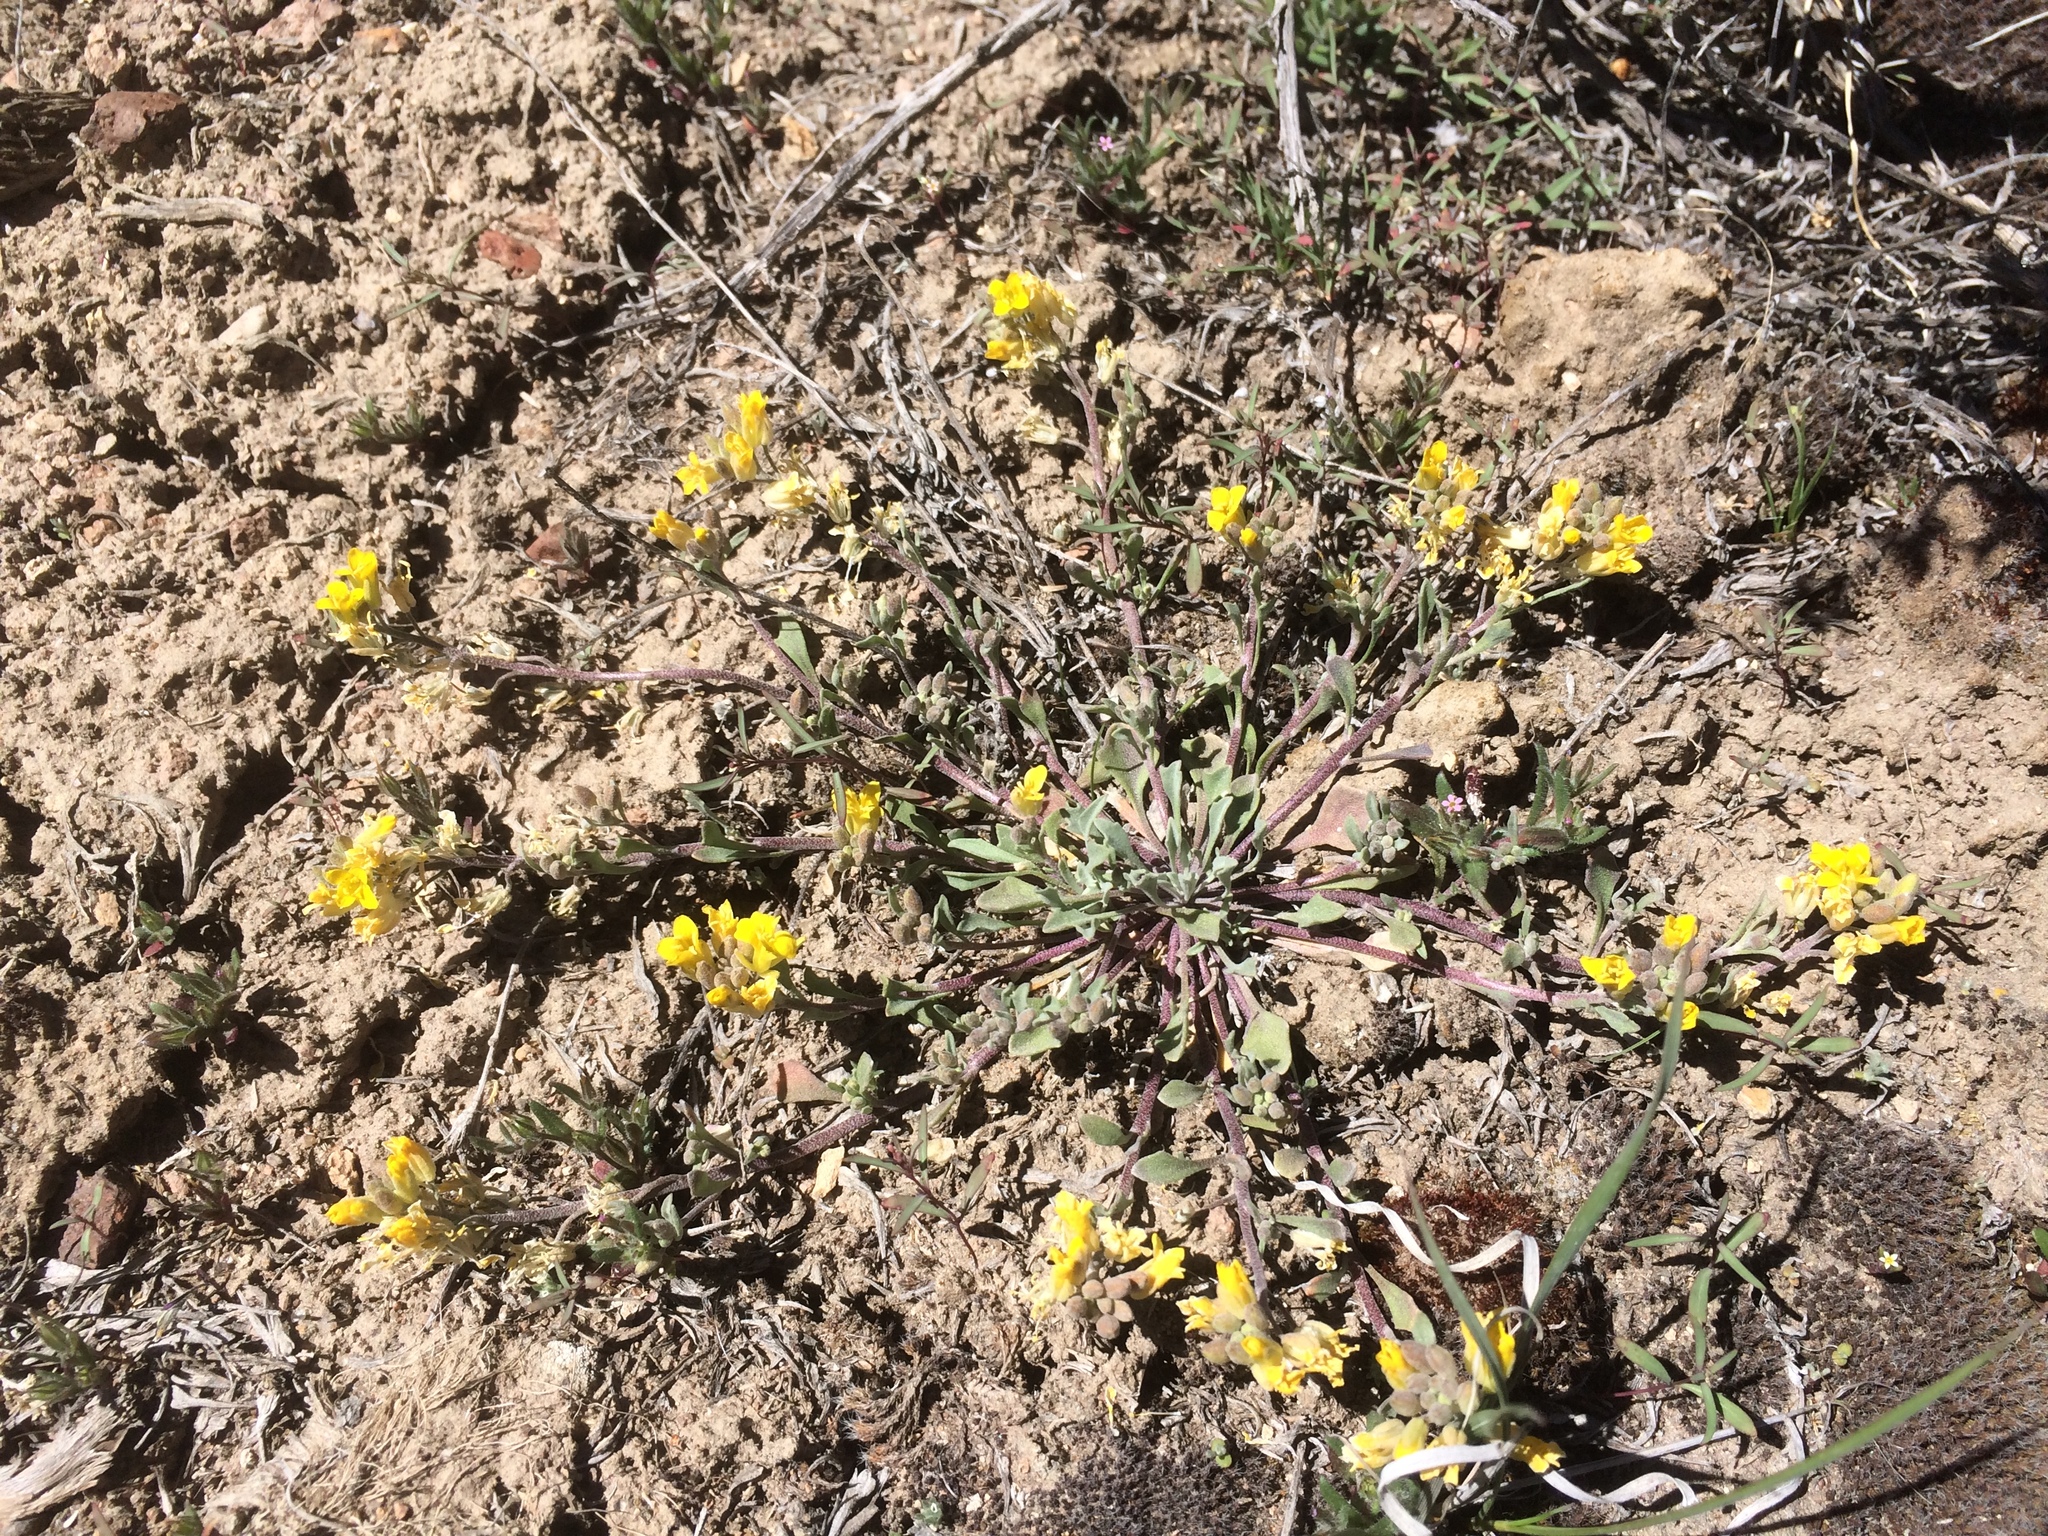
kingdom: Plantae
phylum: Tracheophyta
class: Magnoliopsida
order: Brassicales
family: Brassicaceae
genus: Physaria
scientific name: Physaria kingii
